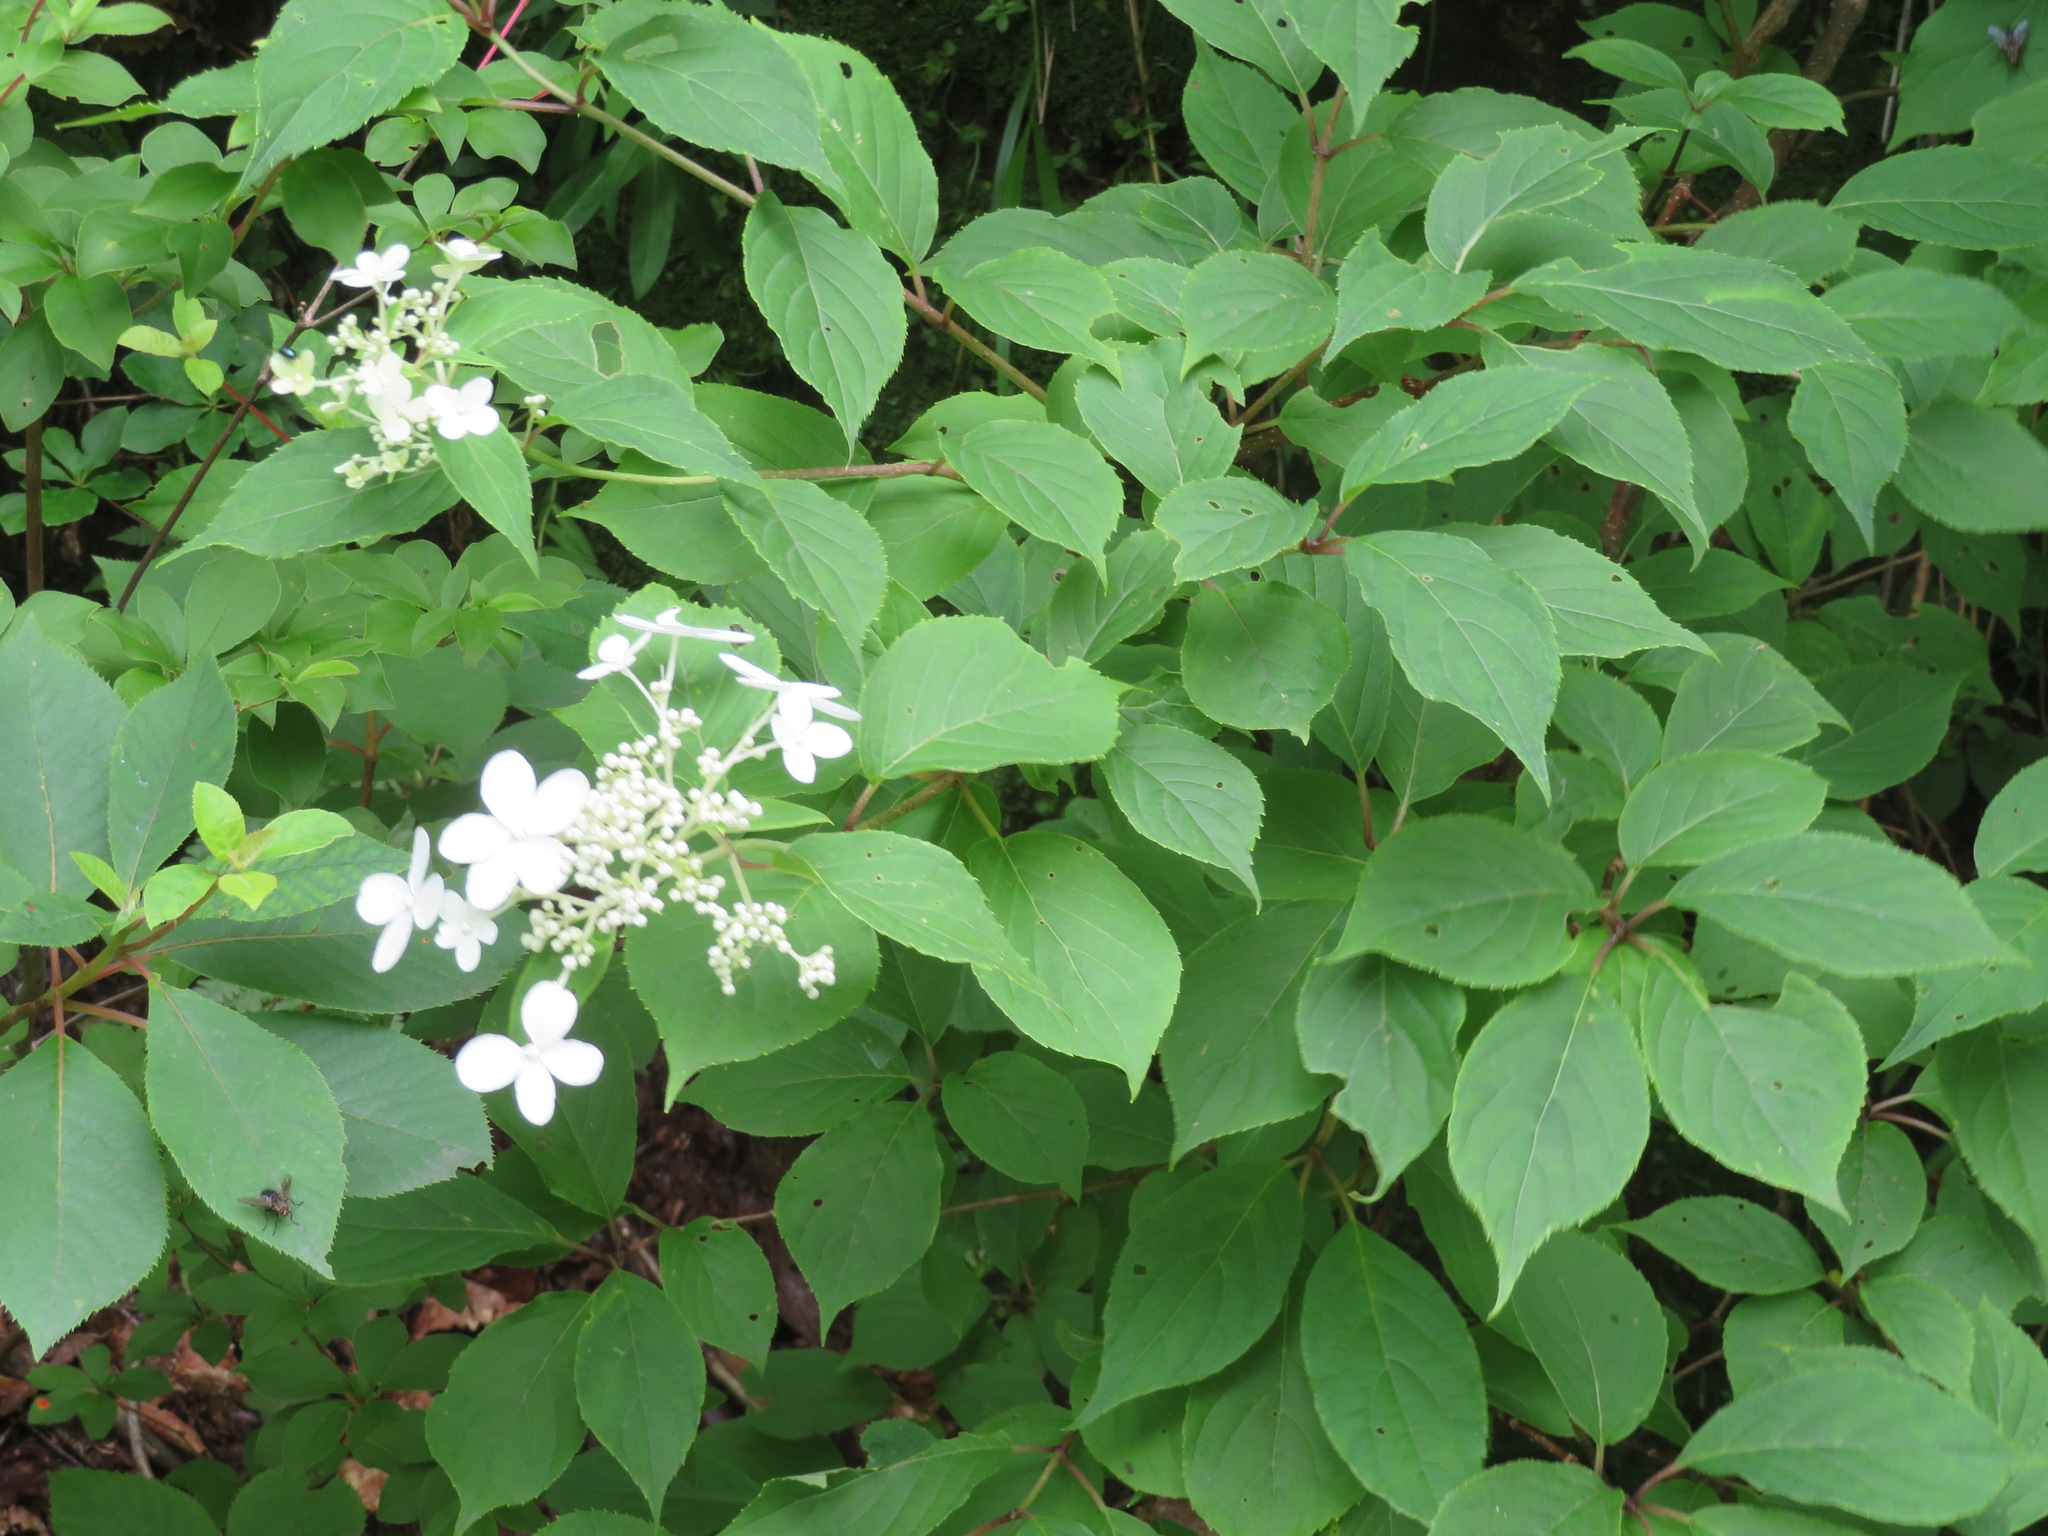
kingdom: Plantae
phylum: Tracheophyta
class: Magnoliopsida
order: Cornales
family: Hydrangeaceae
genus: Hydrangea
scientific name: Hydrangea paniculata
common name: Panicled hydrangea
